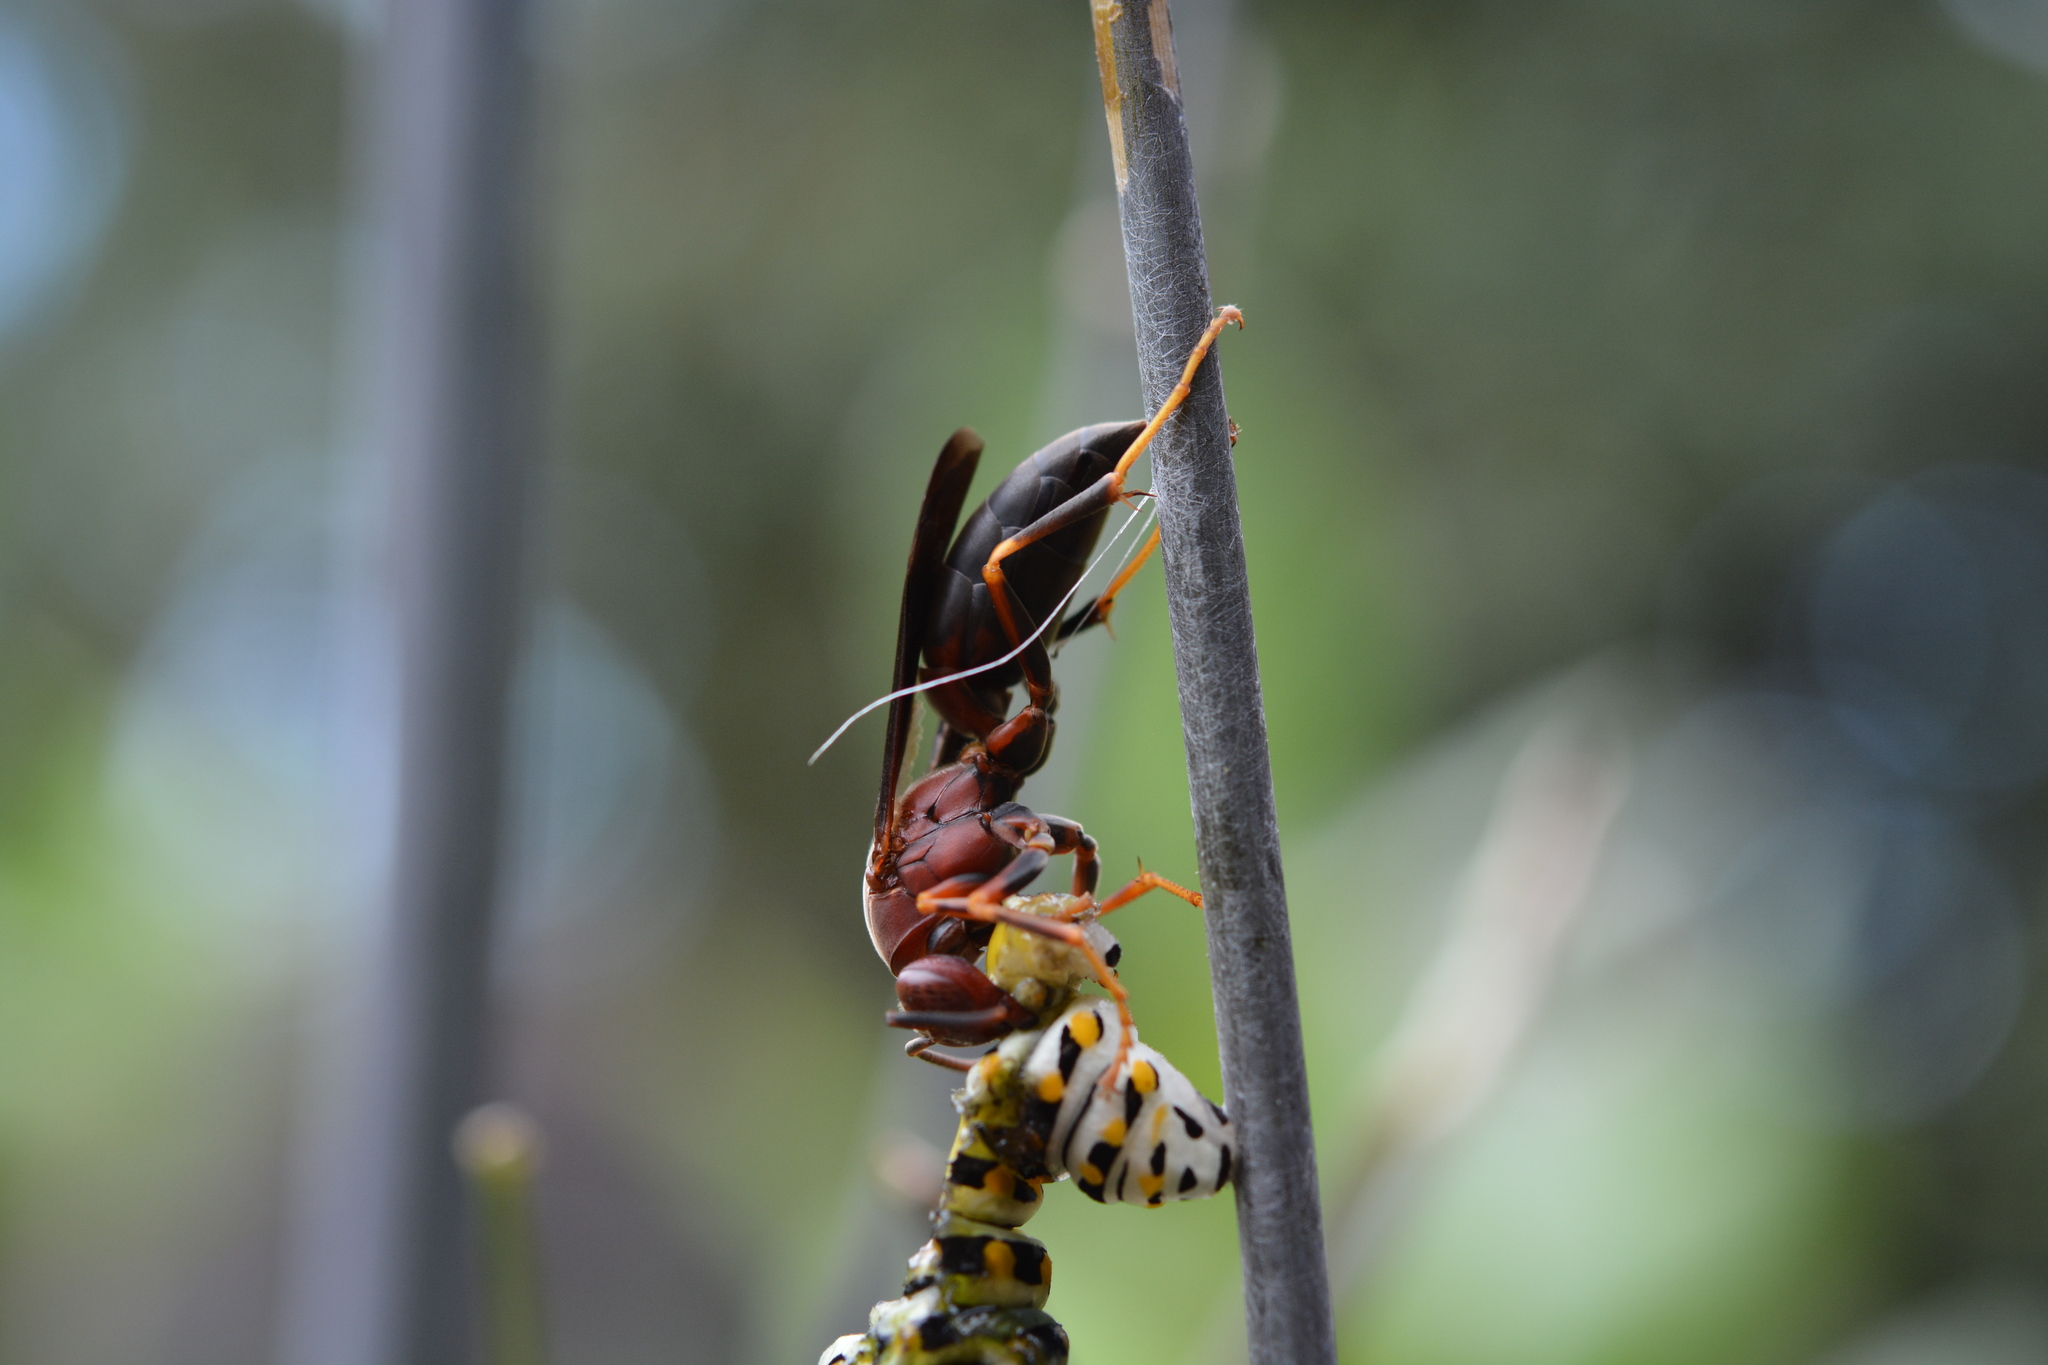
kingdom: Animalia
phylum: Arthropoda
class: Insecta
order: Hymenoptera
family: Eumenidae
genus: Polistes
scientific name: Polistes metricus
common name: Metric paper wasp
